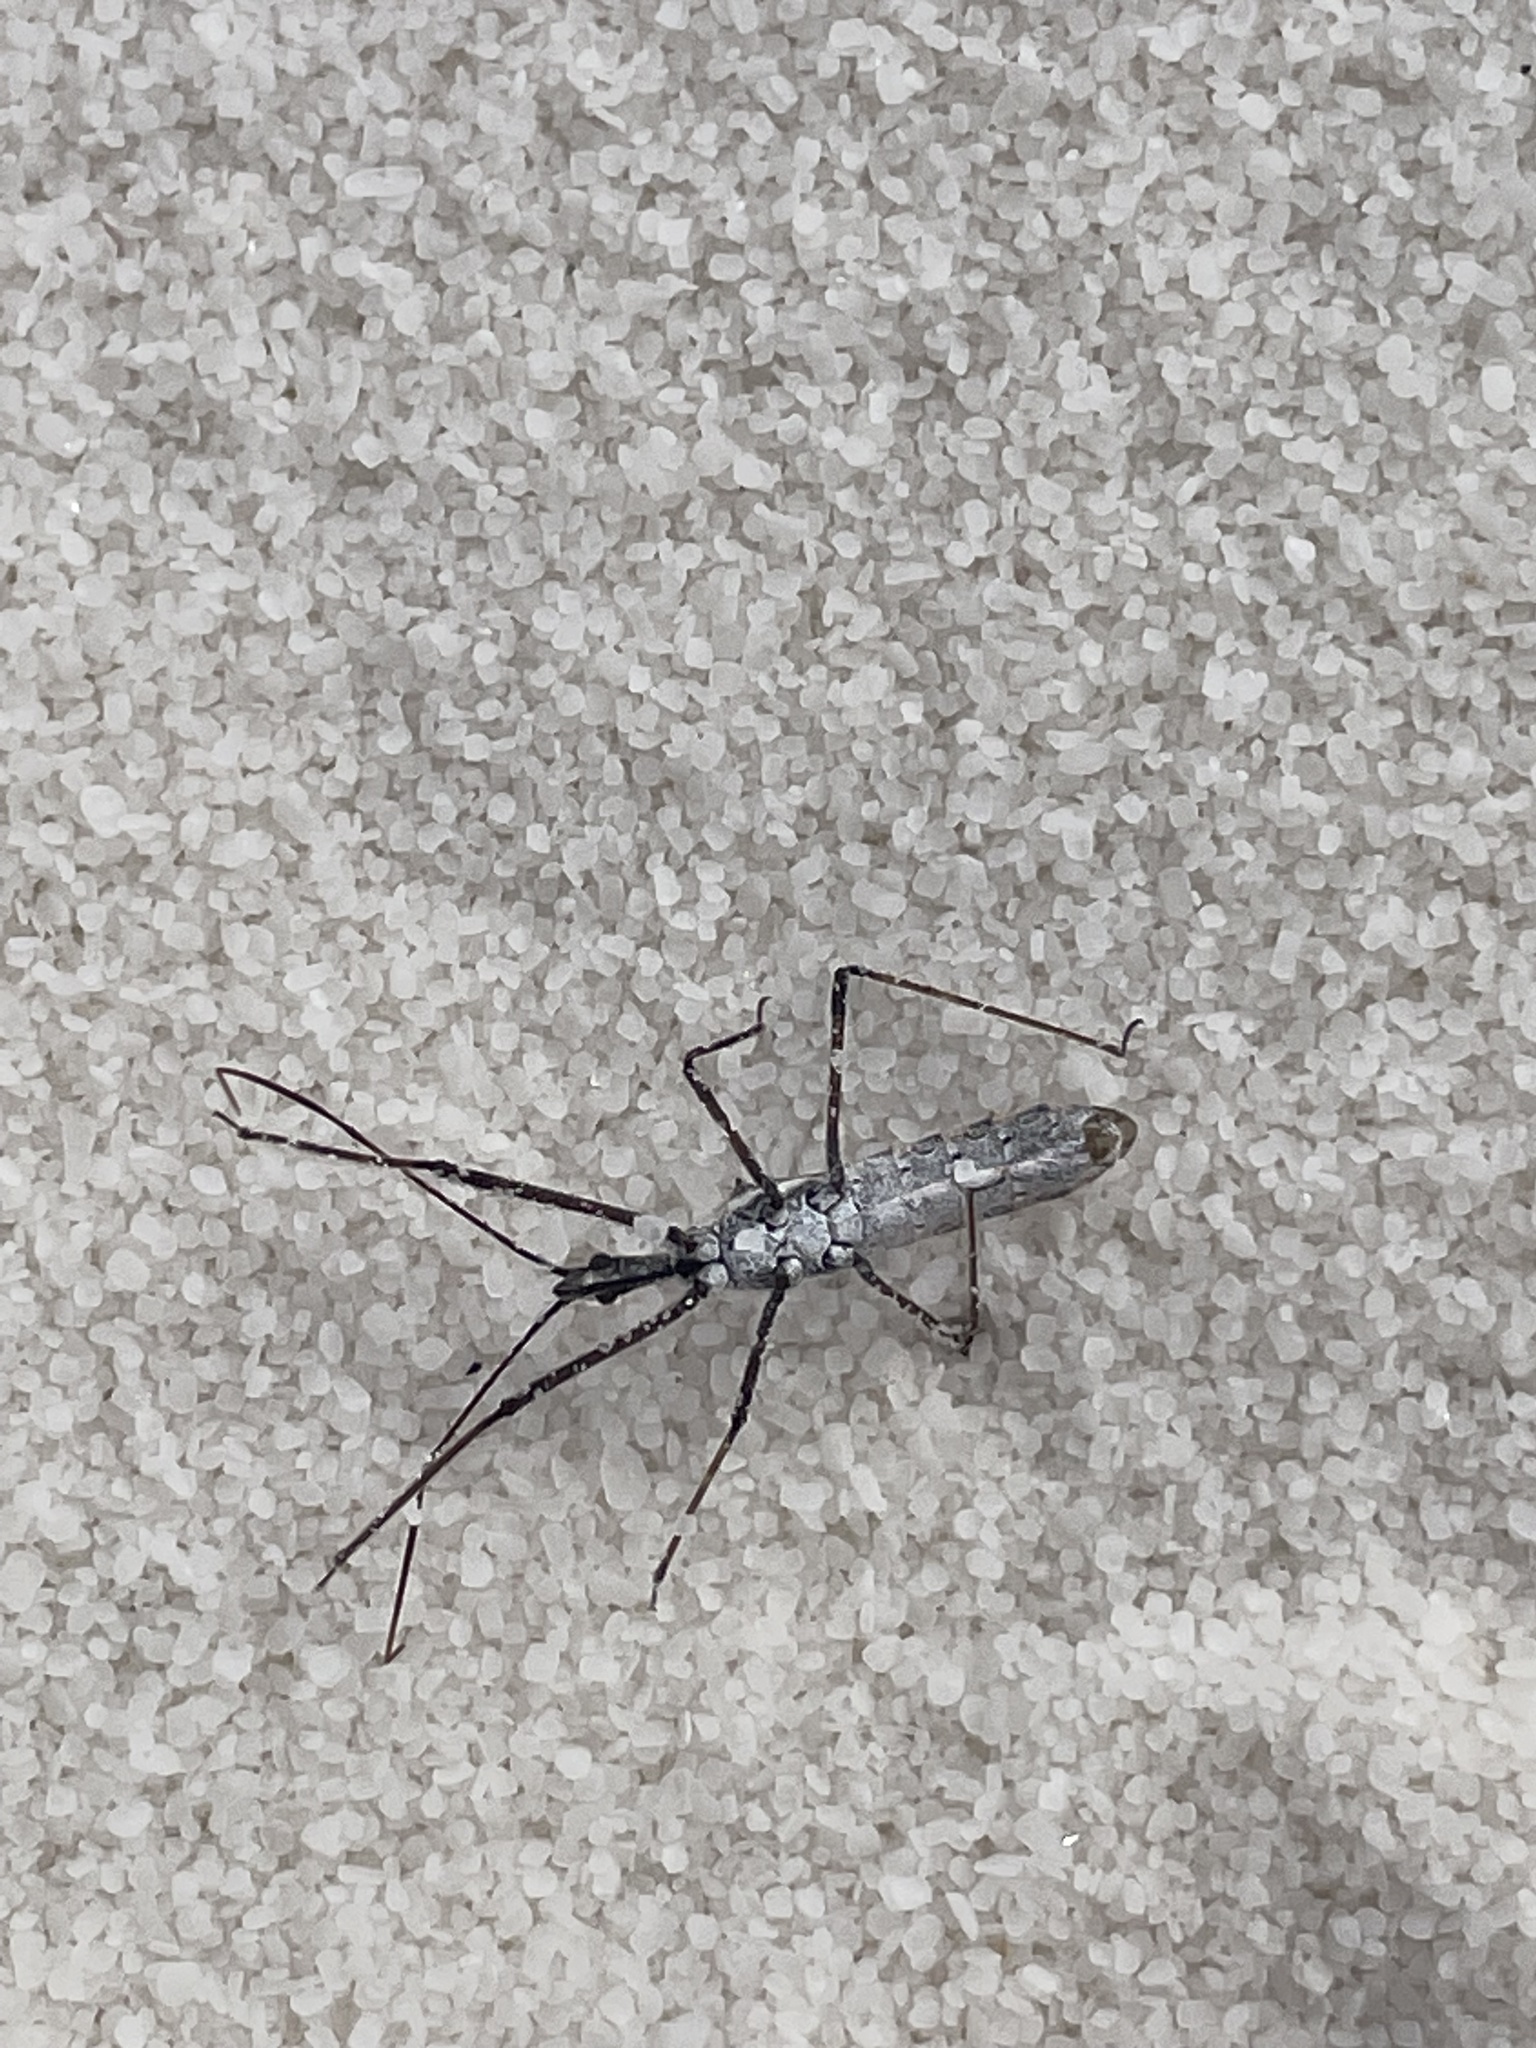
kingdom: Animalia
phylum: Arthropoda
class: Insecta
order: Hemiptera
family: Reduviidae
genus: Zelus
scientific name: Zelus tetracanthus
